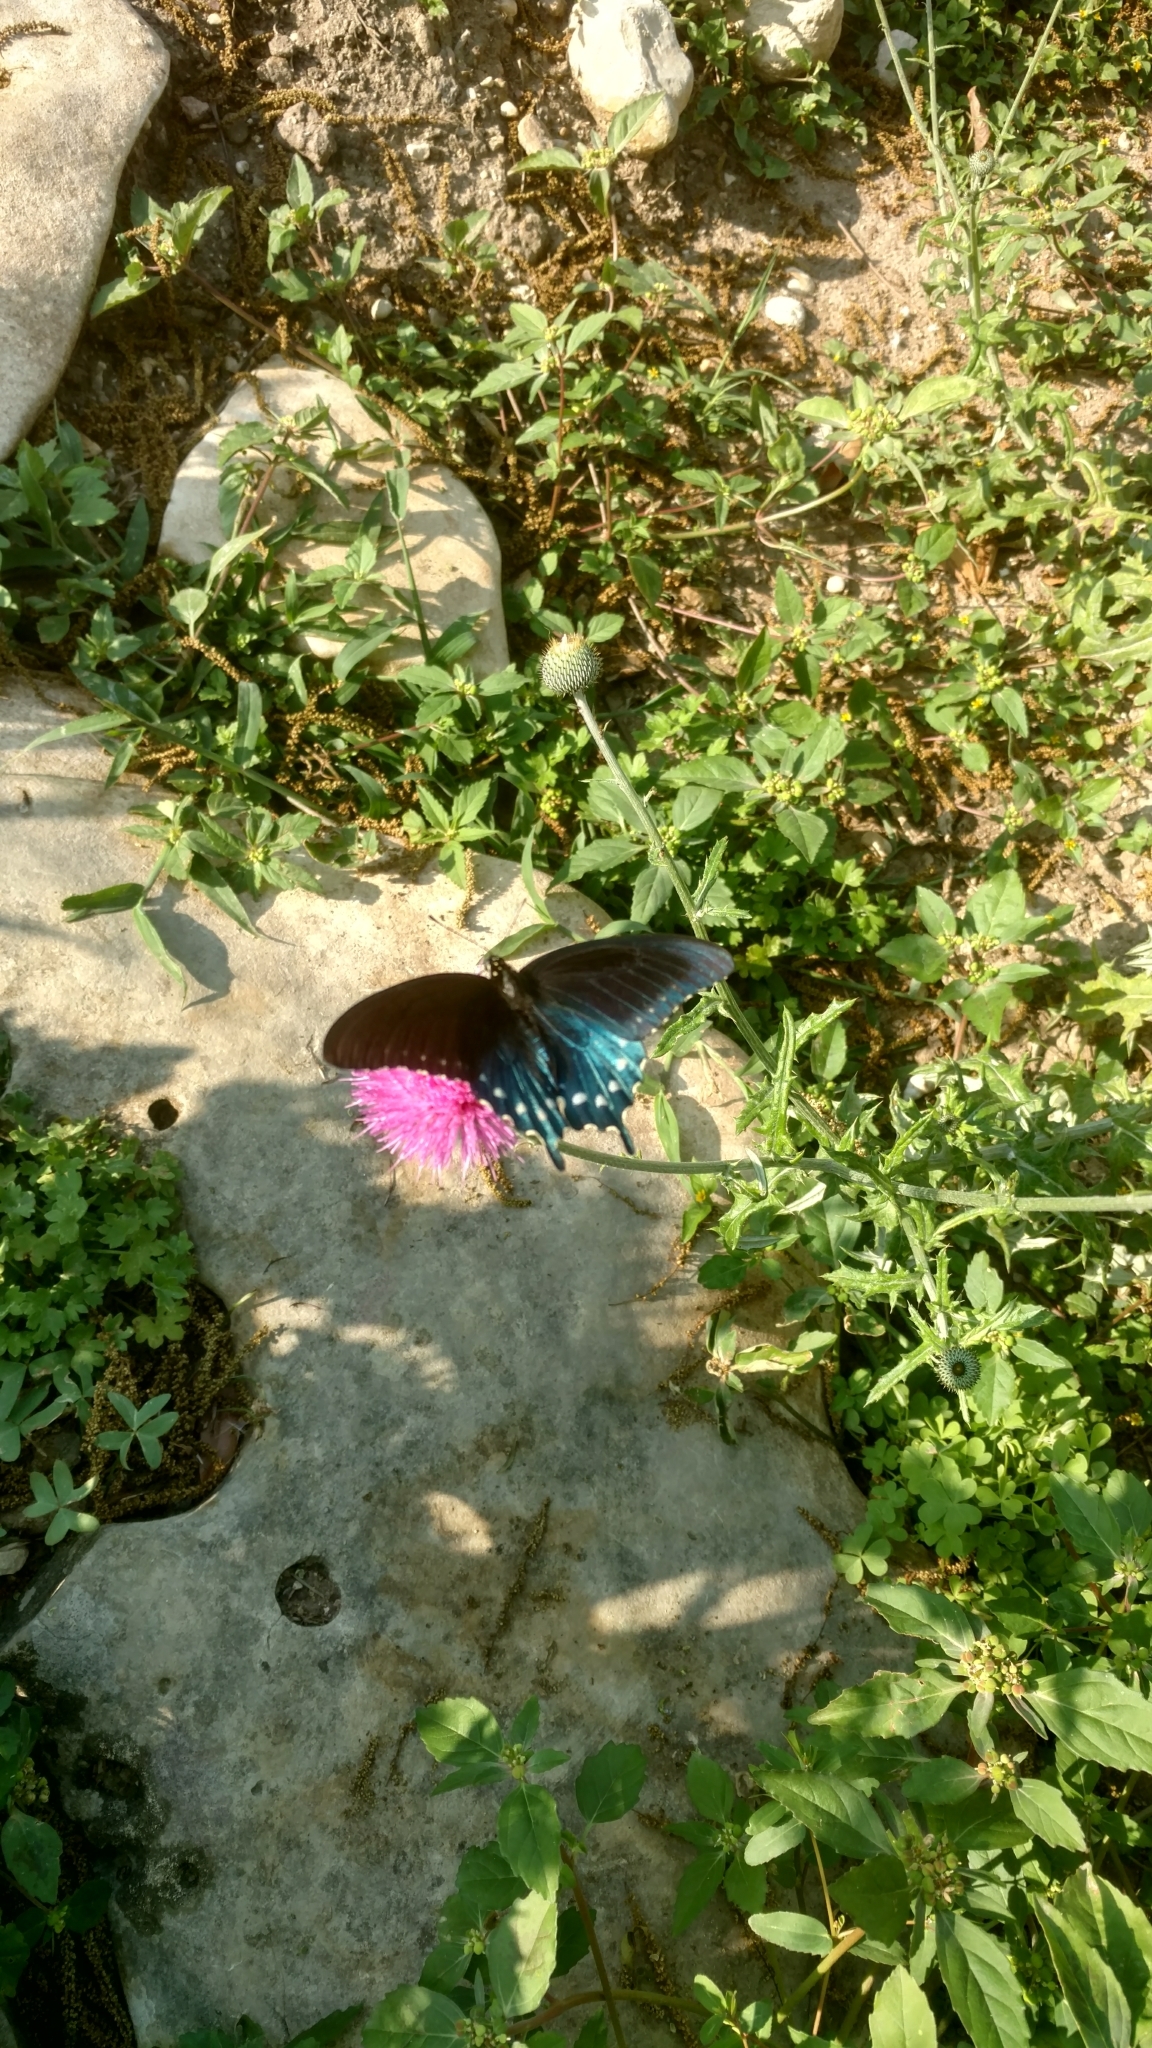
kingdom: Animalia
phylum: Arthropoda
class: Insecta
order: Lepidoptera
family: Papilionidae
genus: Battus
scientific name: Battus philenor
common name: Pipevine swallowtail
